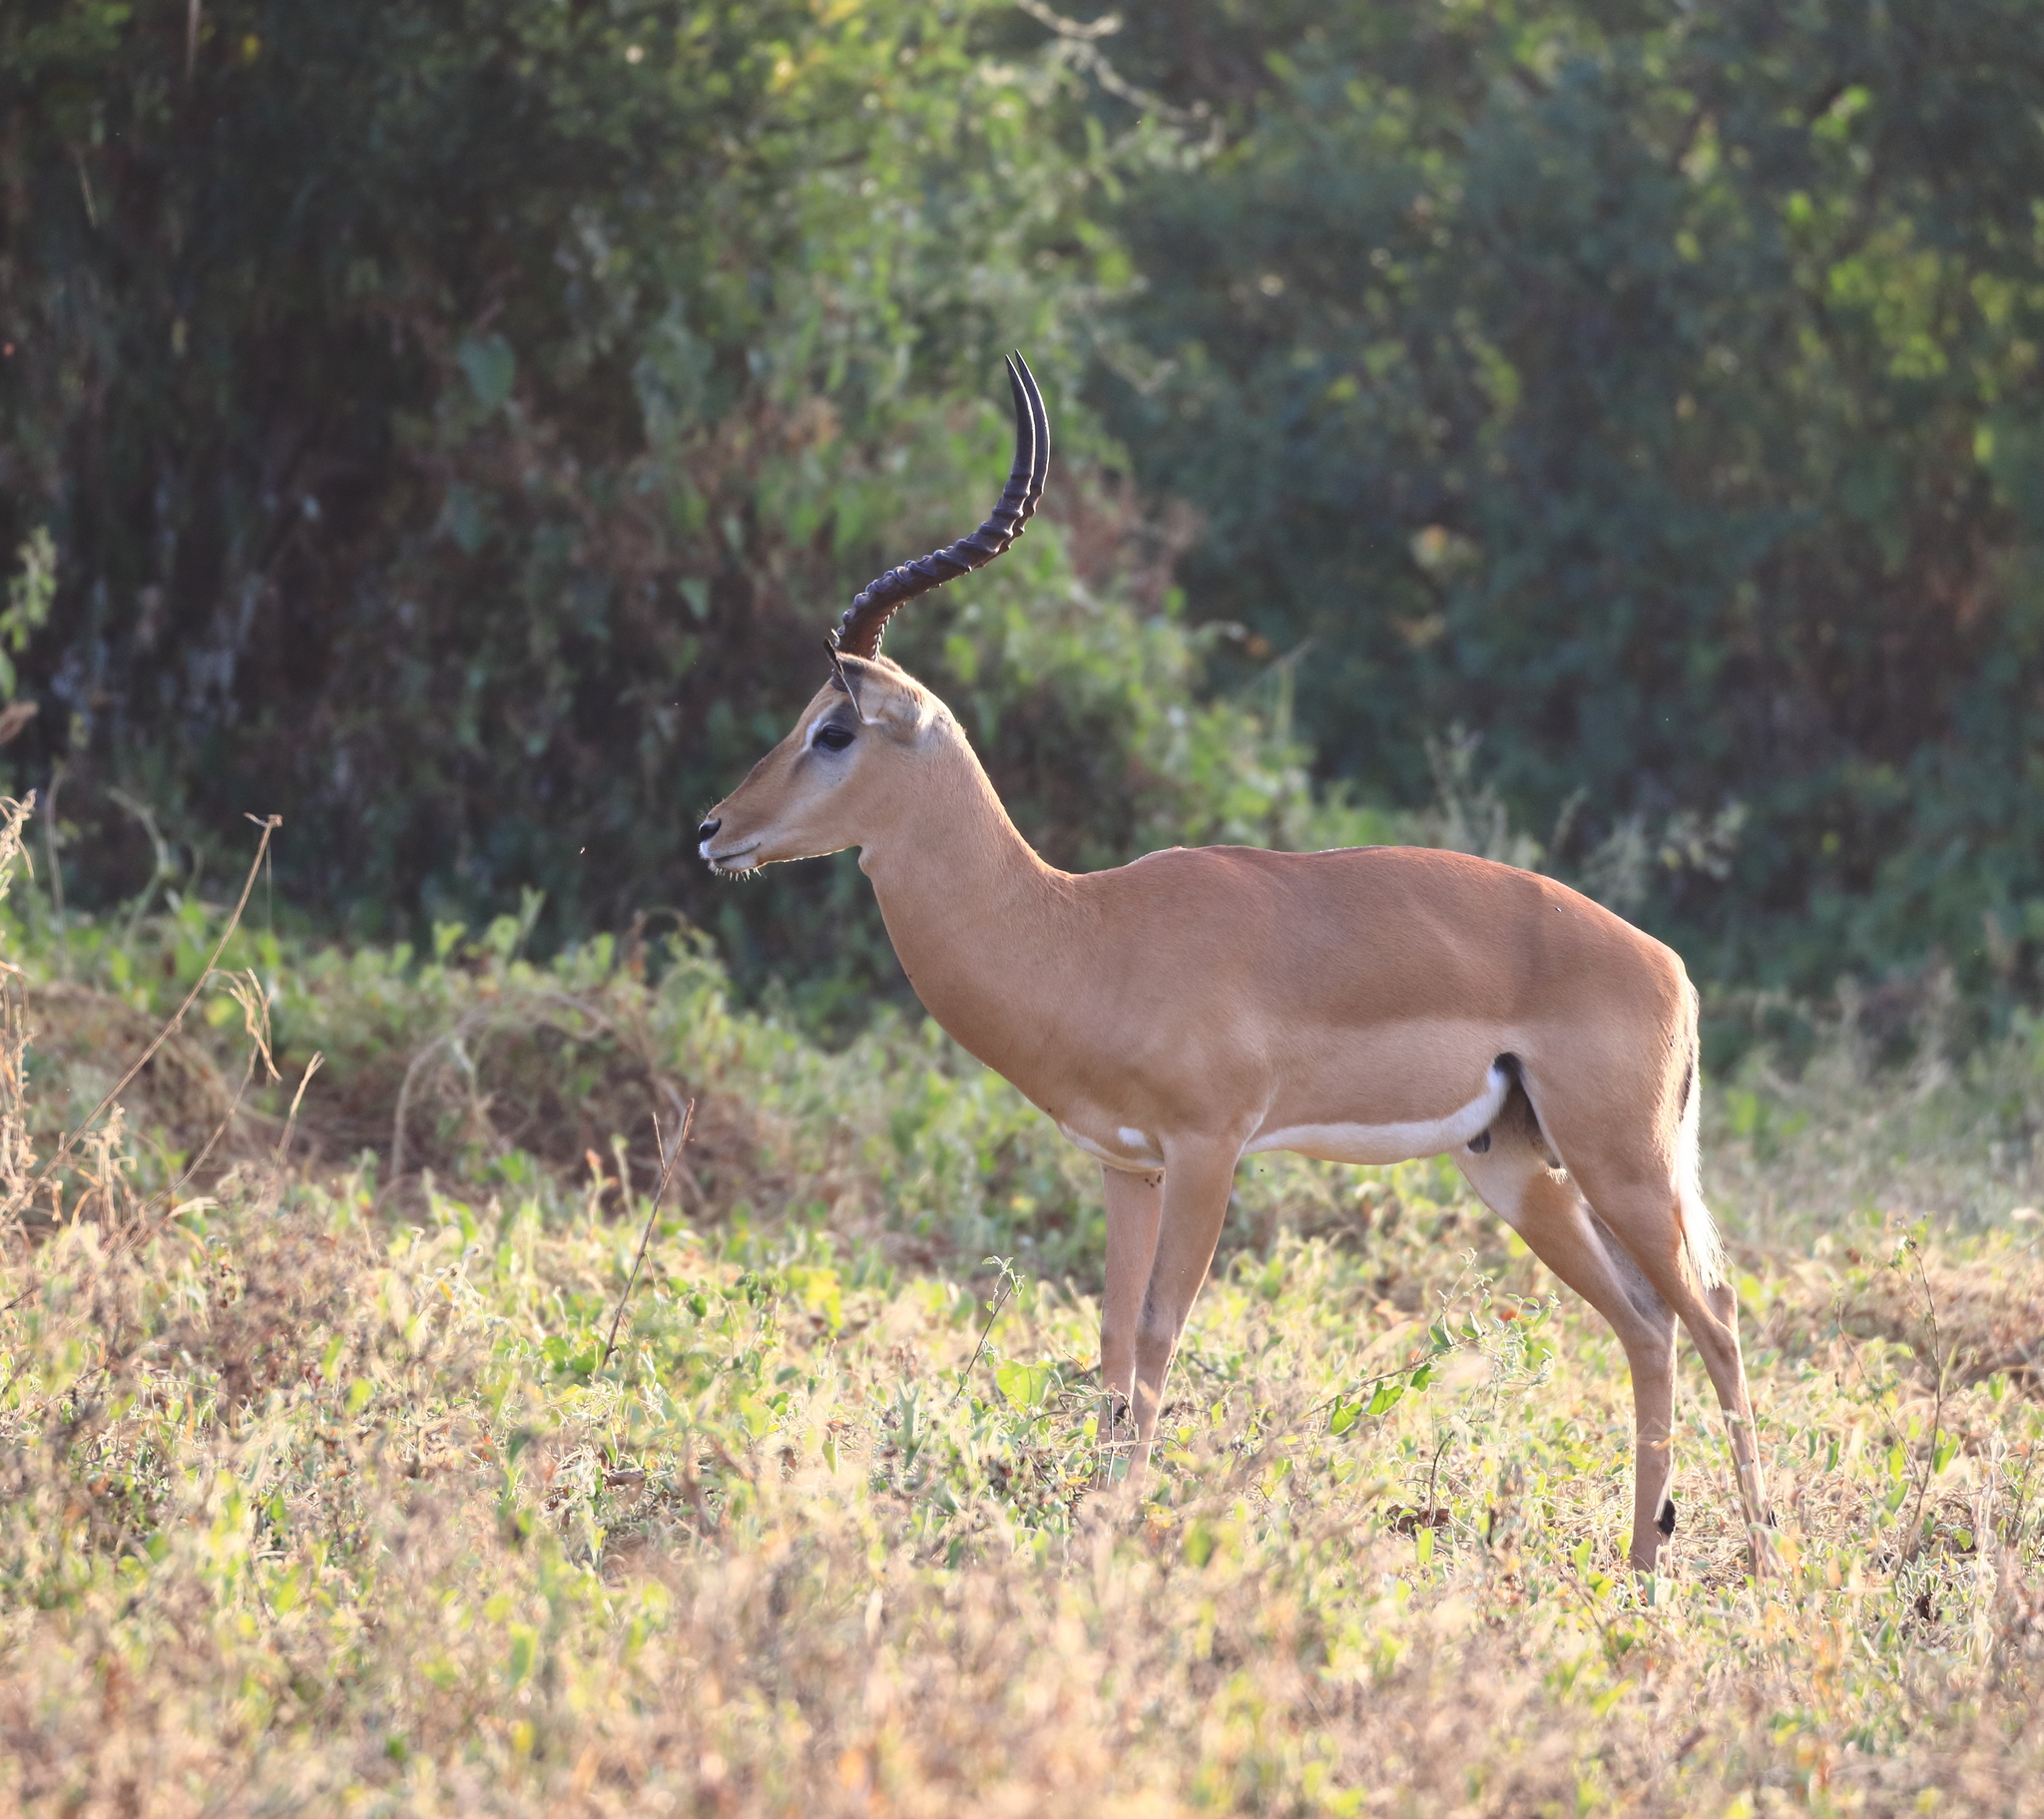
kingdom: Animalia
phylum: Chordata
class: Mammalia
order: Artiodactyla
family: Bovidae
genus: Aepyceros
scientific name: Aepyceros melampus
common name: Impala
